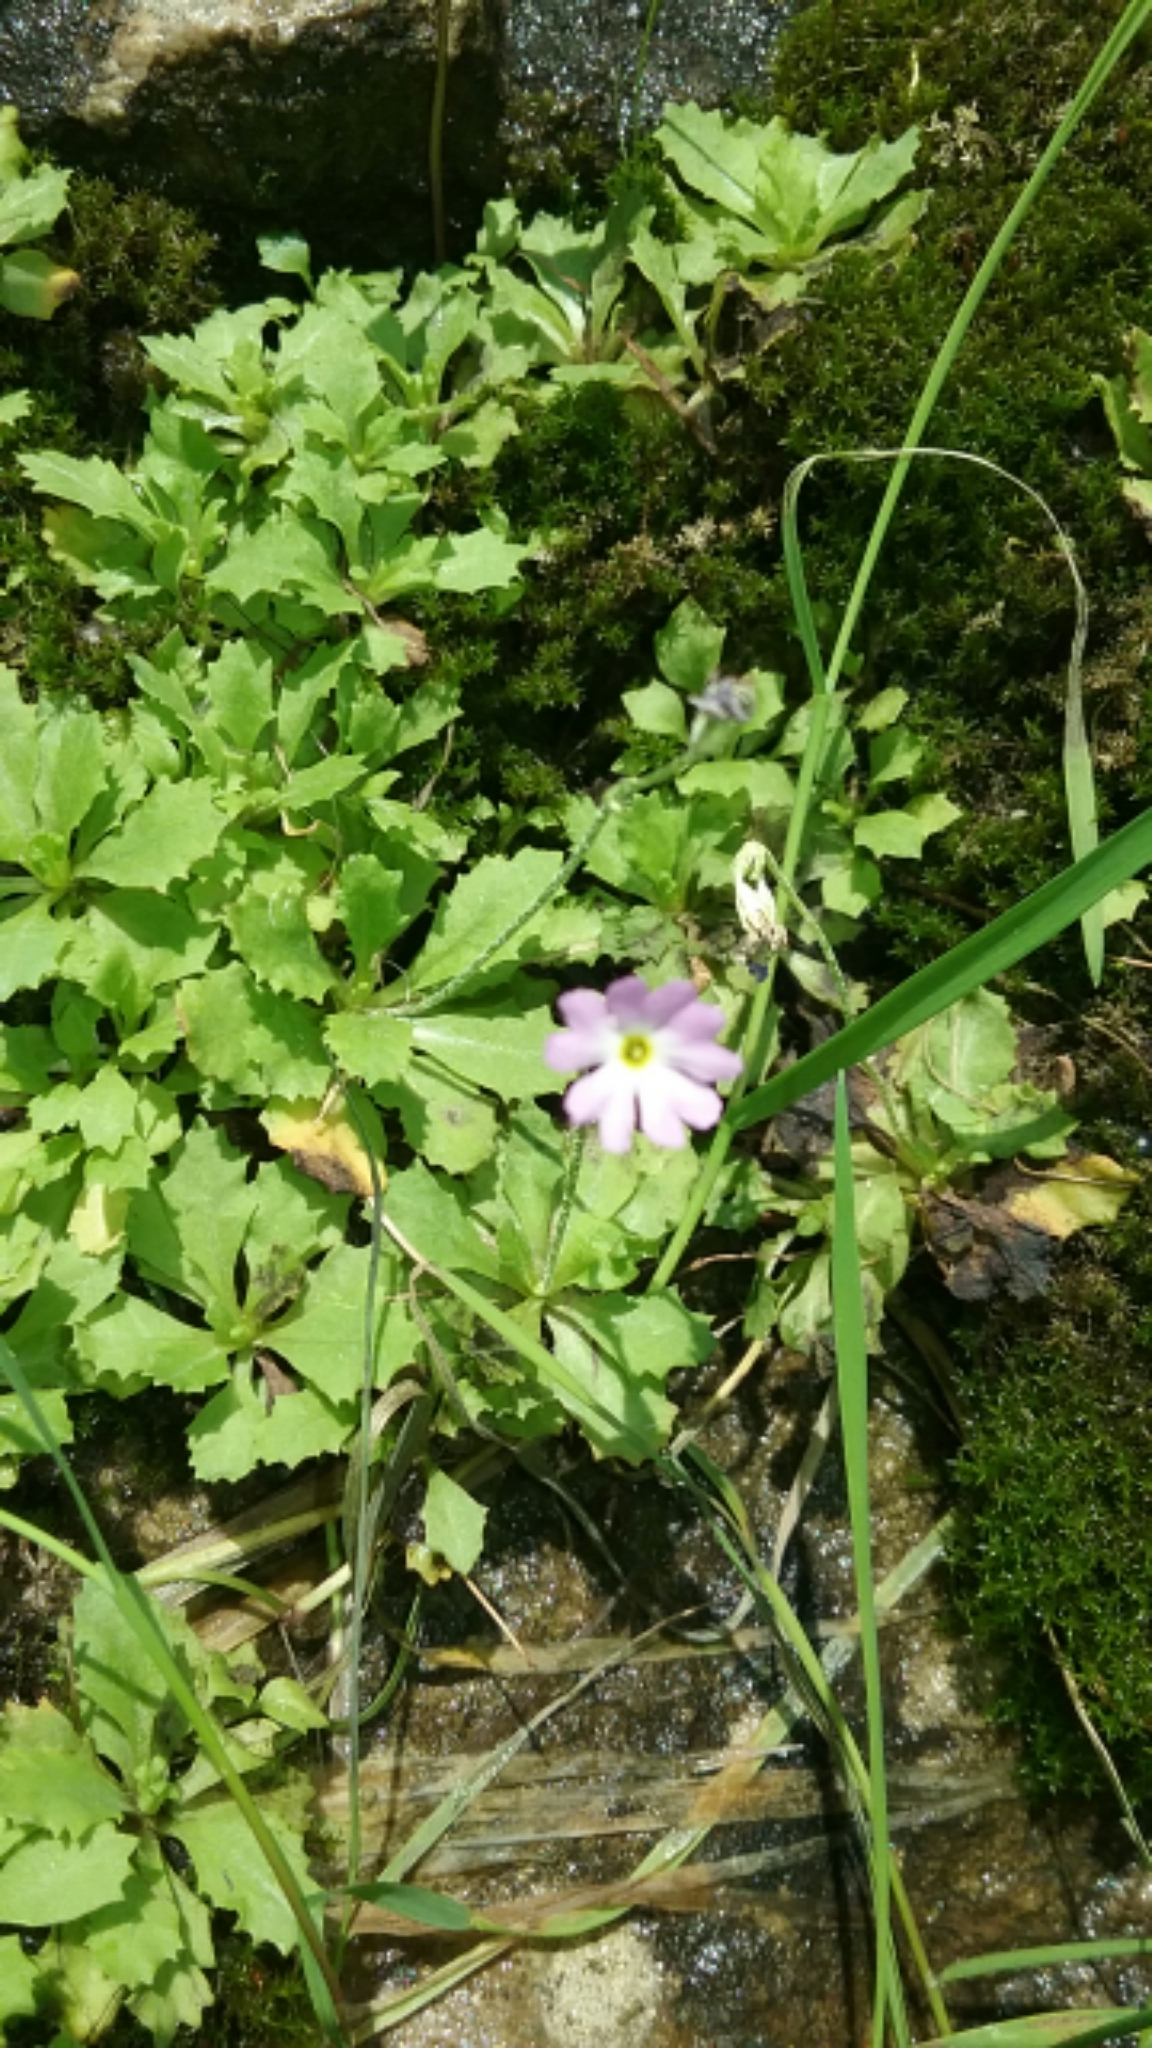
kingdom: Plantae
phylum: Tracheophyta
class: Magnoliopsida
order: Ericales
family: Primulaceae
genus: Primula
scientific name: Primula mistassinica
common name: Bird's-eye primrose
